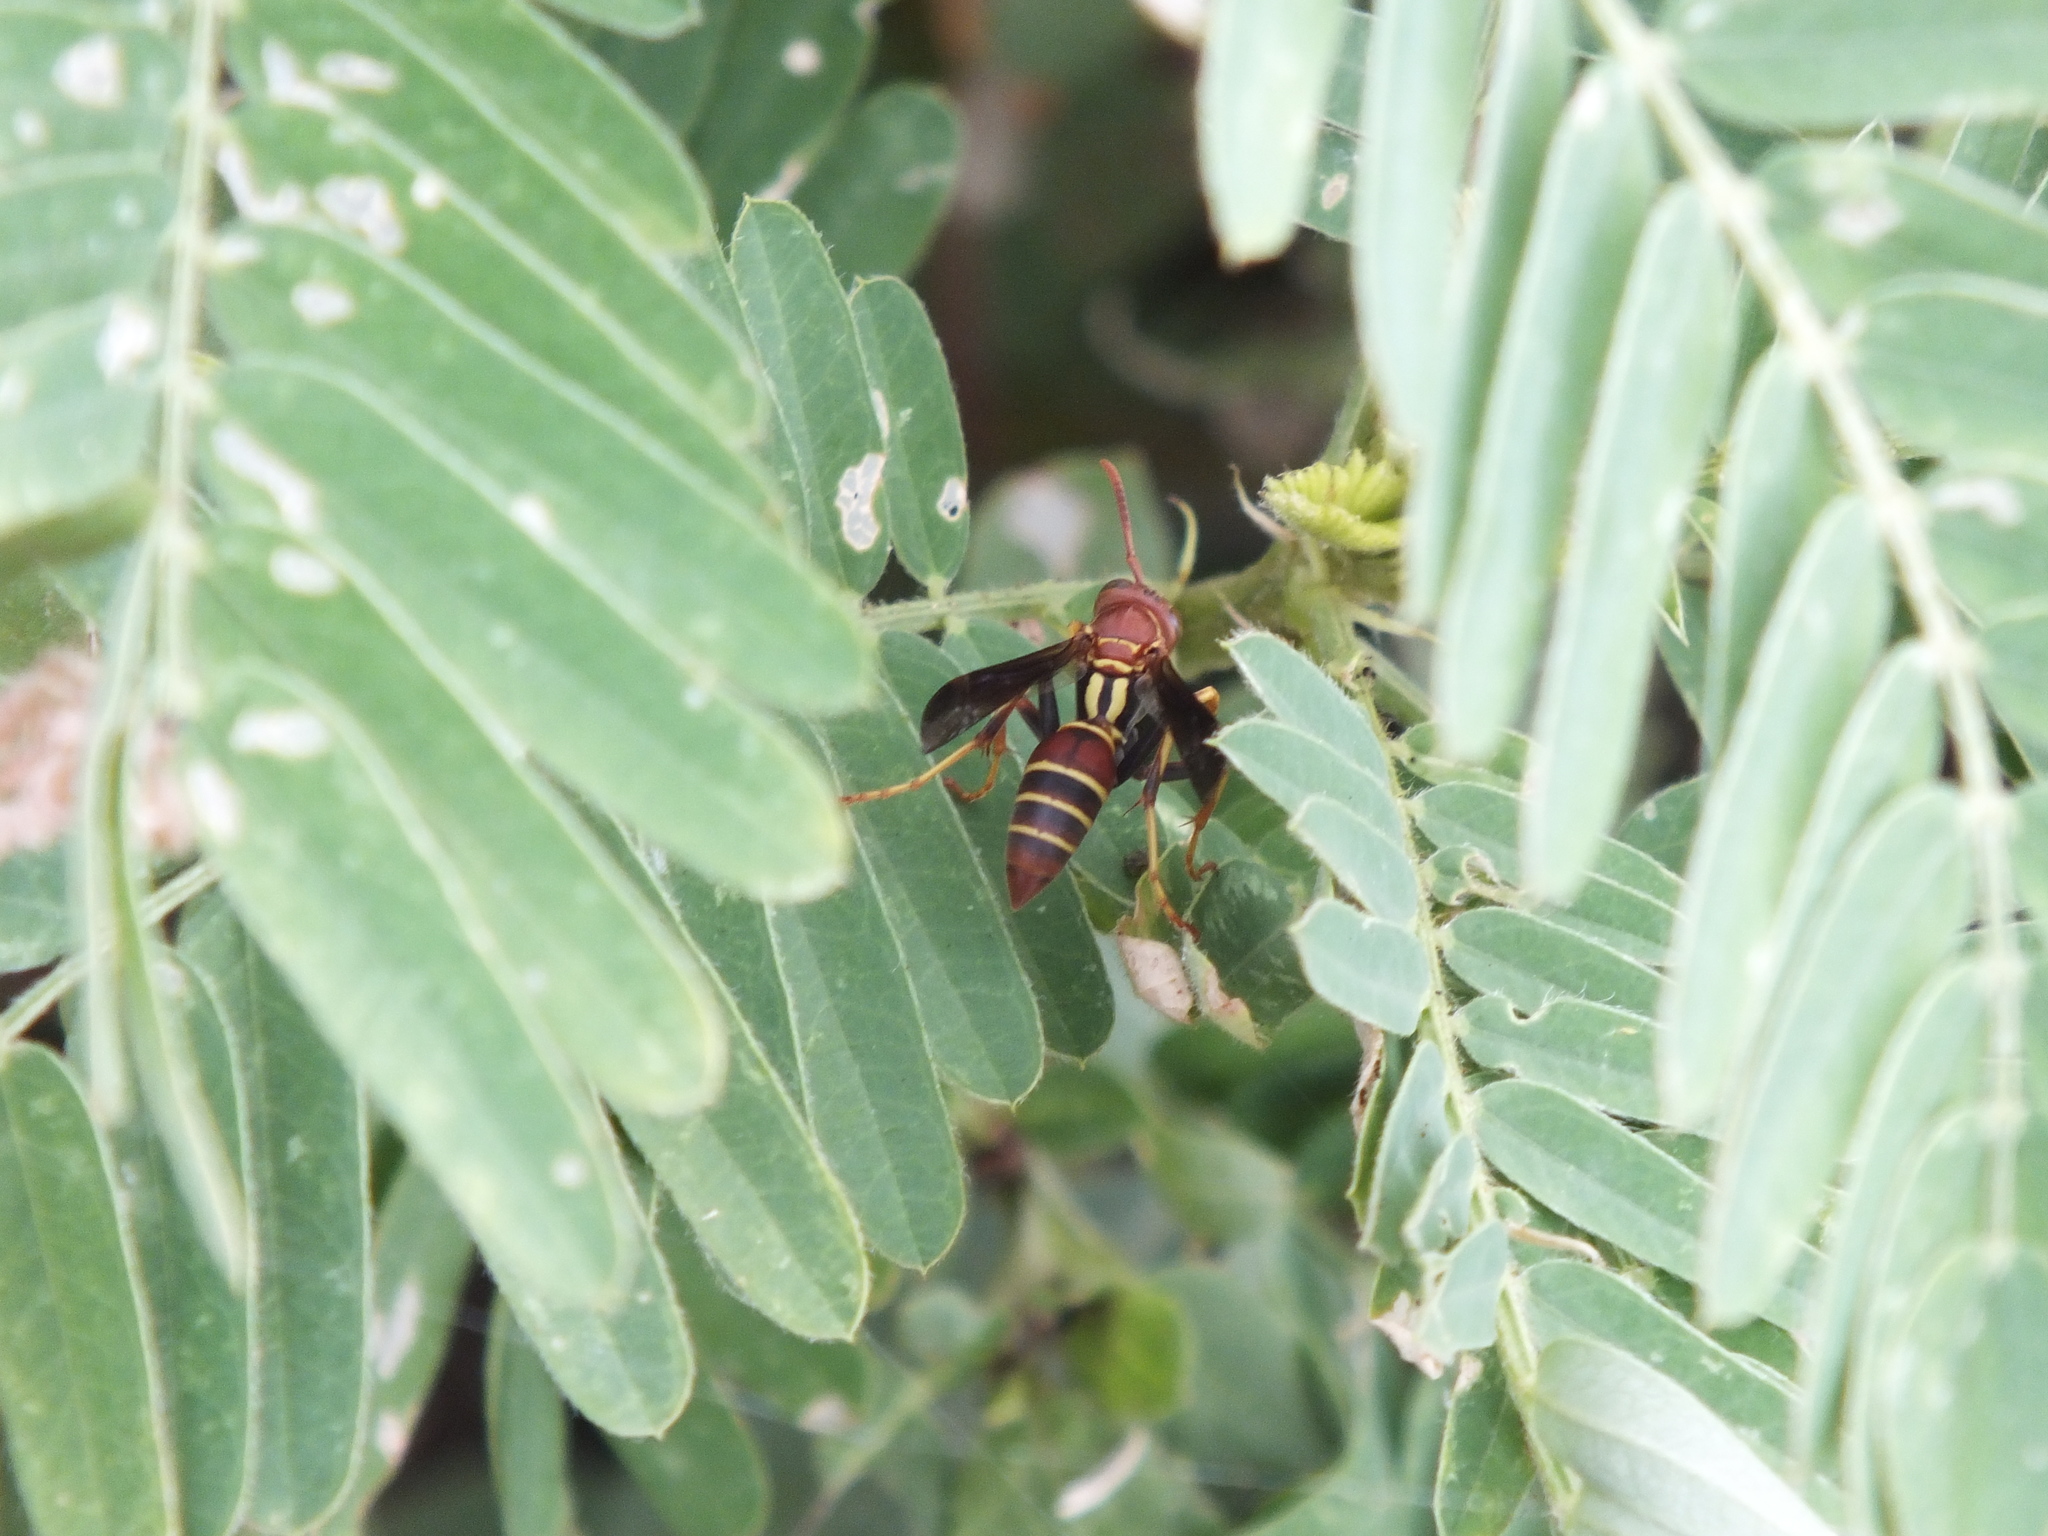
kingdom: Animalia
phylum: Arthropoda
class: Insecta
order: Hymenoptera
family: Eumenidae
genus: Polistes
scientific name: Polistes dorsalis
